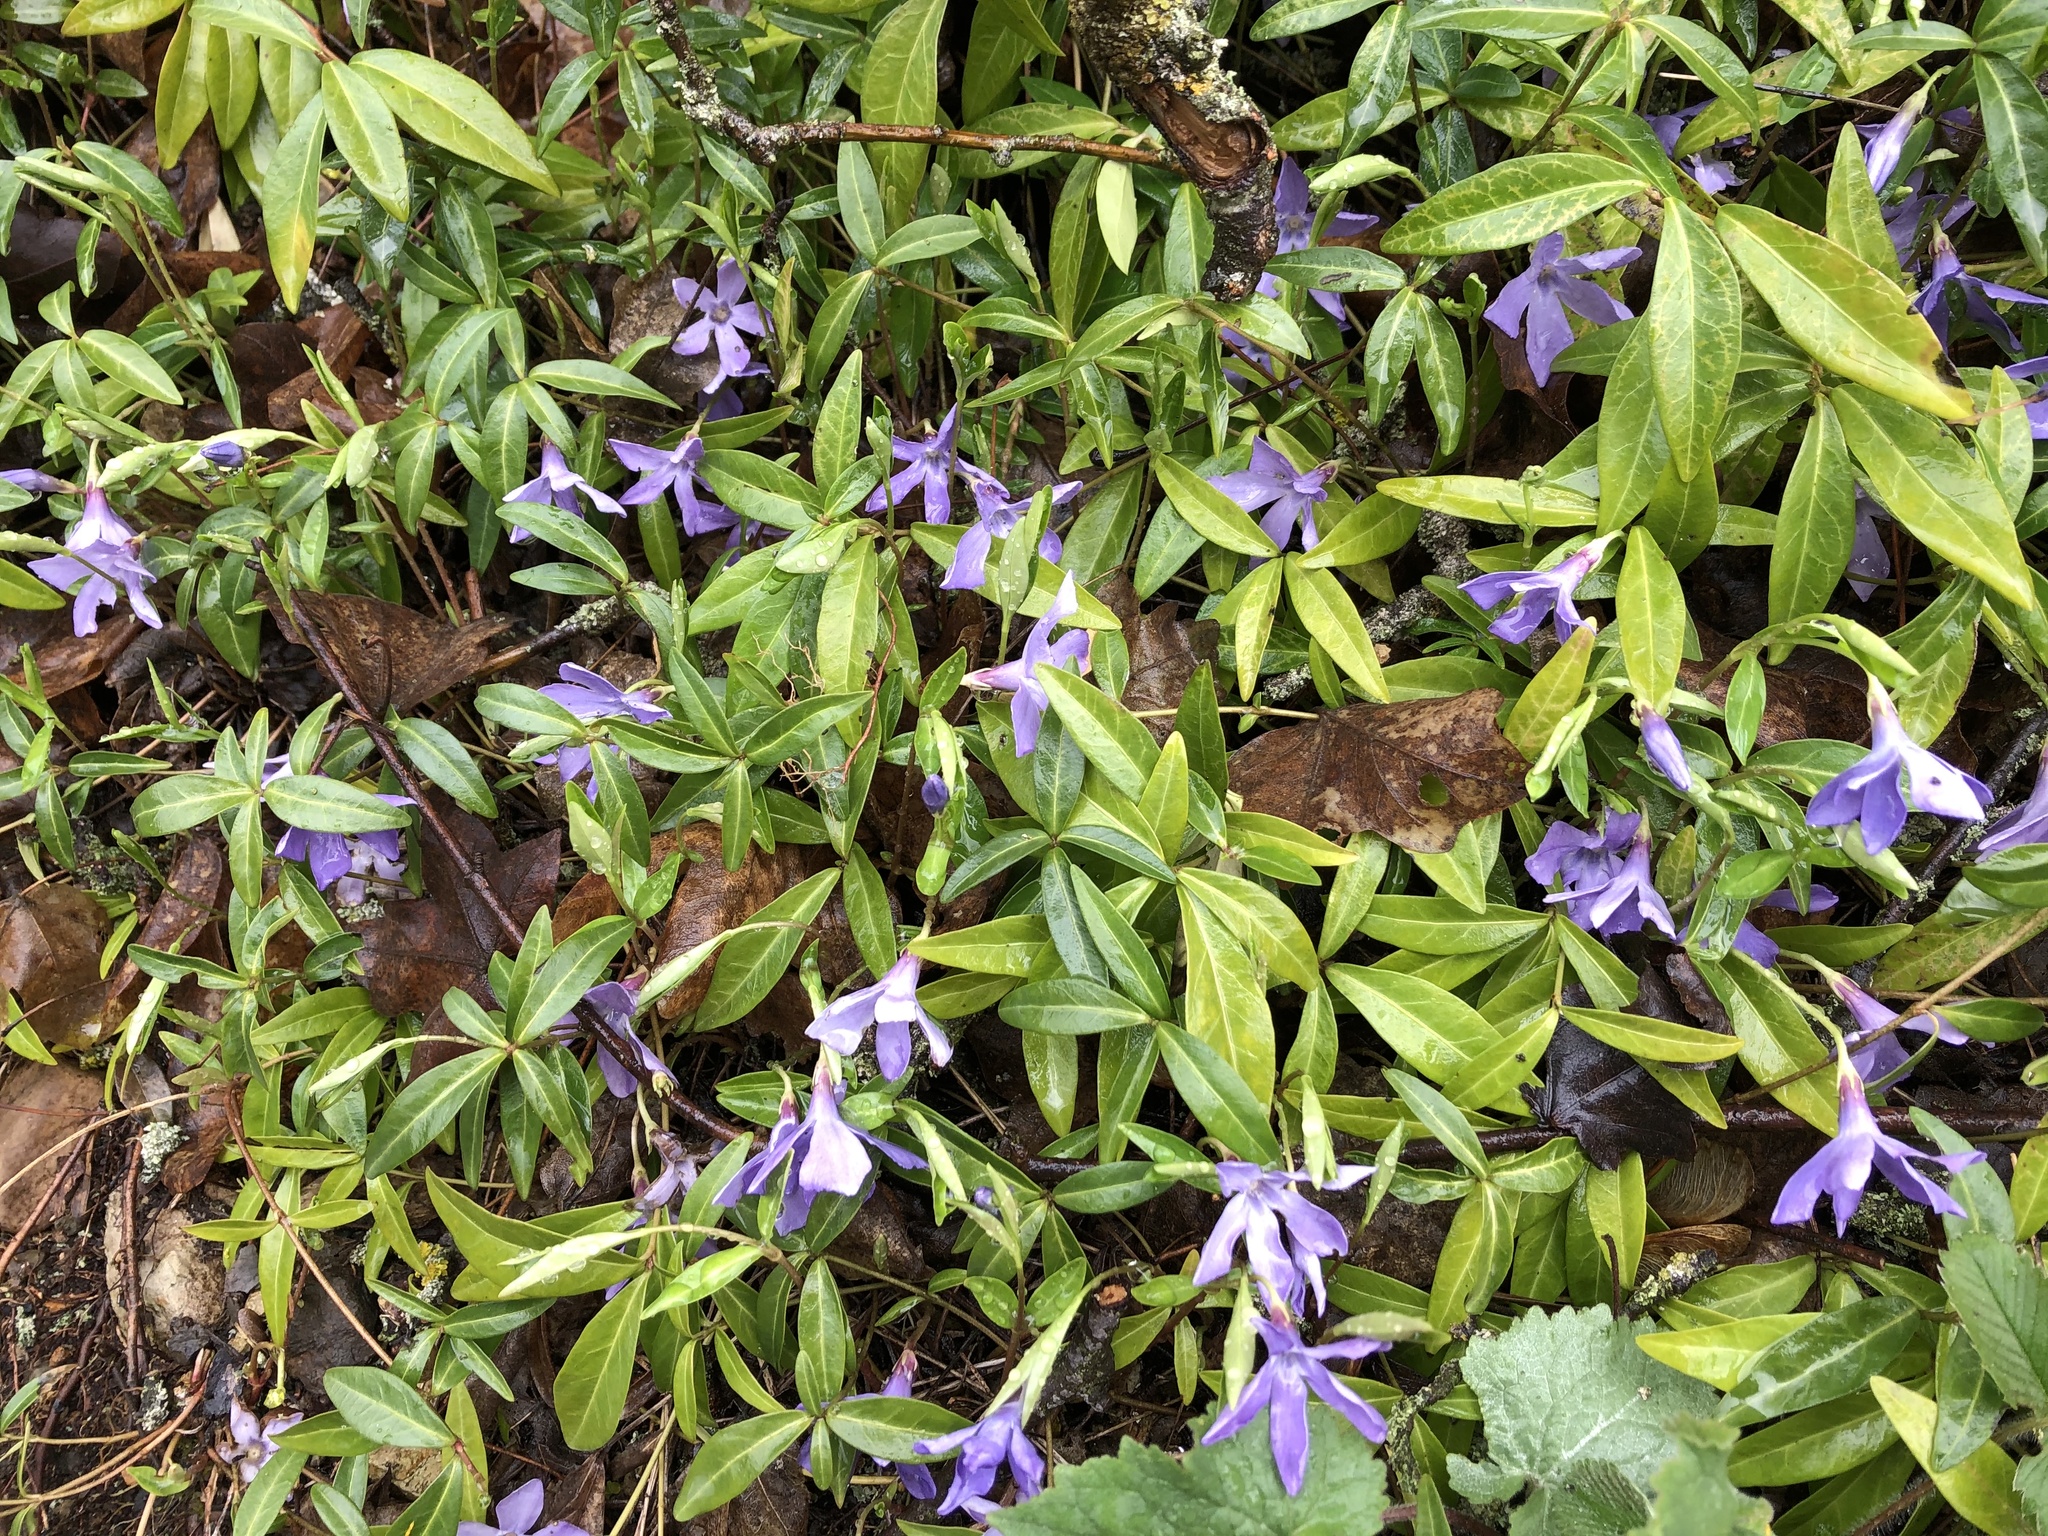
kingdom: Plantae
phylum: Tracheophyta
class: Magnoliopsida
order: Gentianales
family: Apocynaceae
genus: Vinca
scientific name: Vinca minor
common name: Lesser periwinkle
